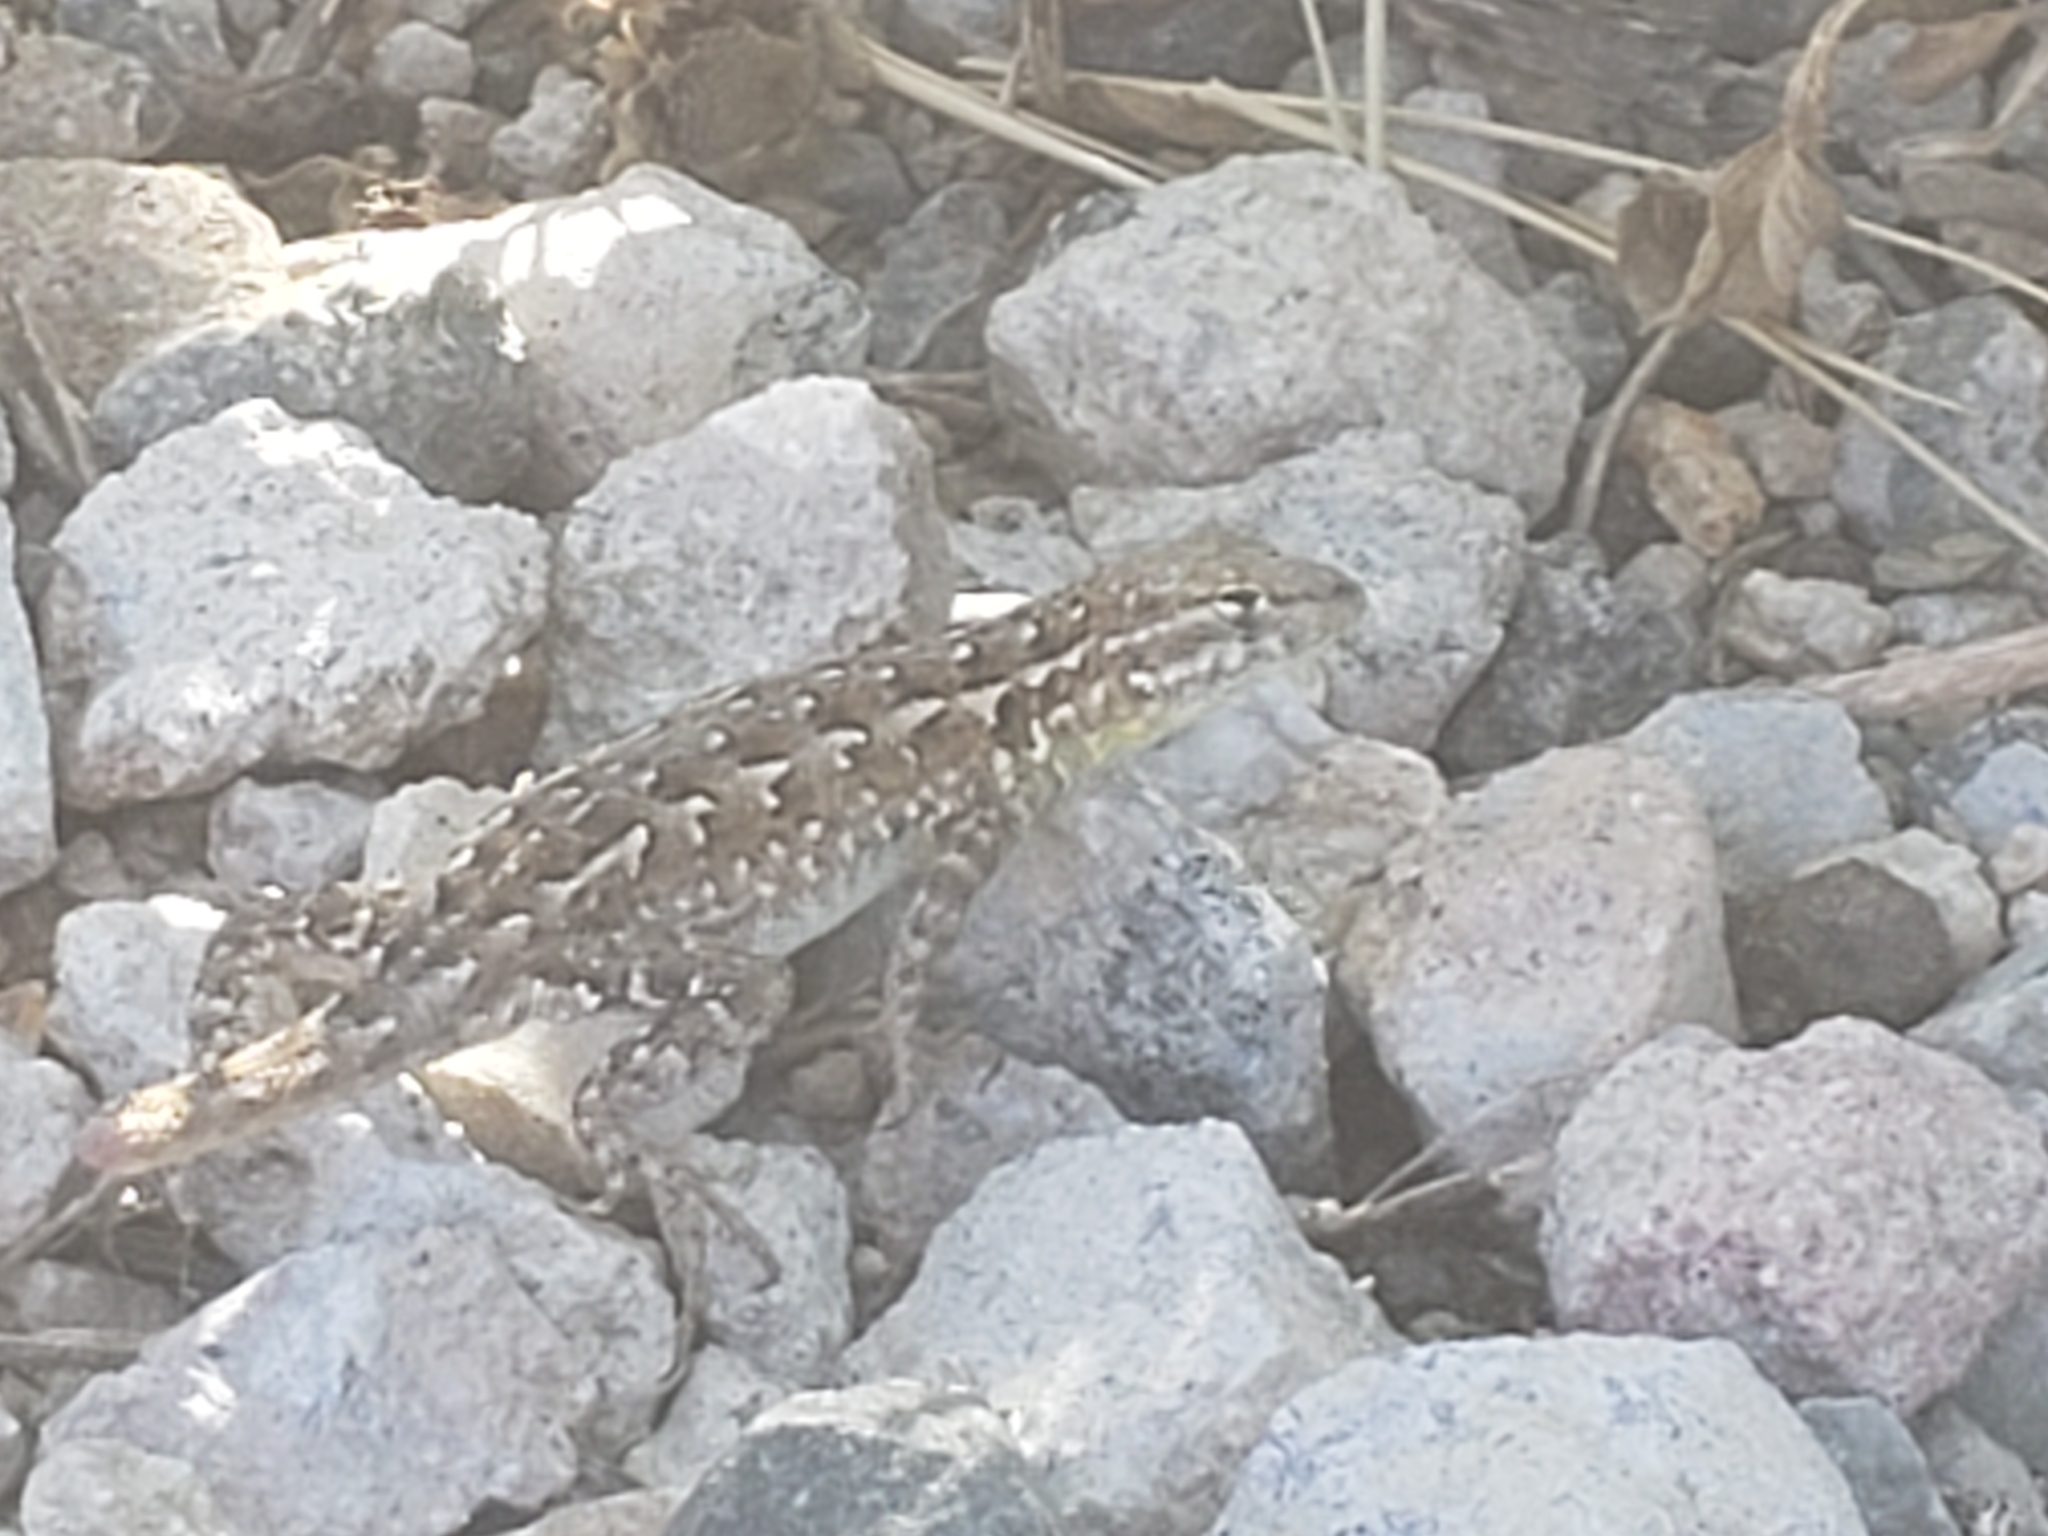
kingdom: Animalia
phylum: Chordata
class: Squamata
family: Phrynosomatidae
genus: Sceloporus
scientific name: Sceloporus occidentalis
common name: Western fence lizard
